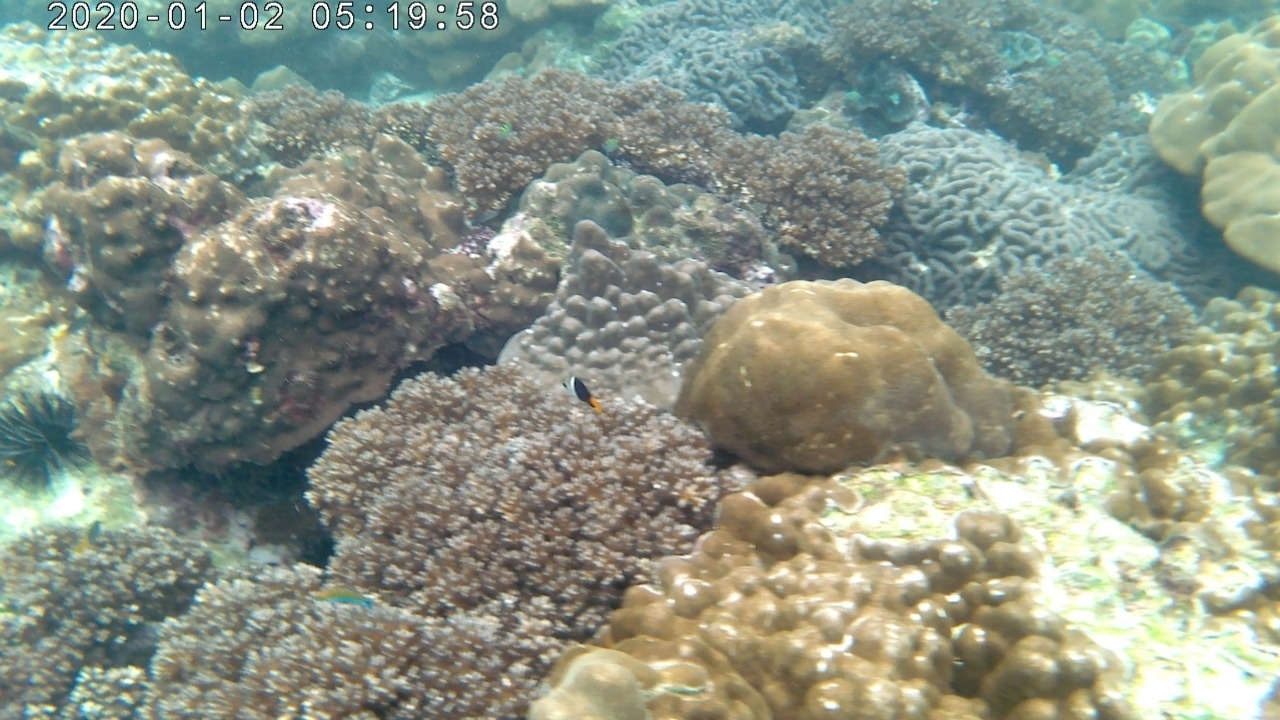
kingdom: Animalia
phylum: Chordata
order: Perciformes
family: Labridae
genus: Hemigymnus
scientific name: Hemigymnus melapterus
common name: Blackeye thicklip
